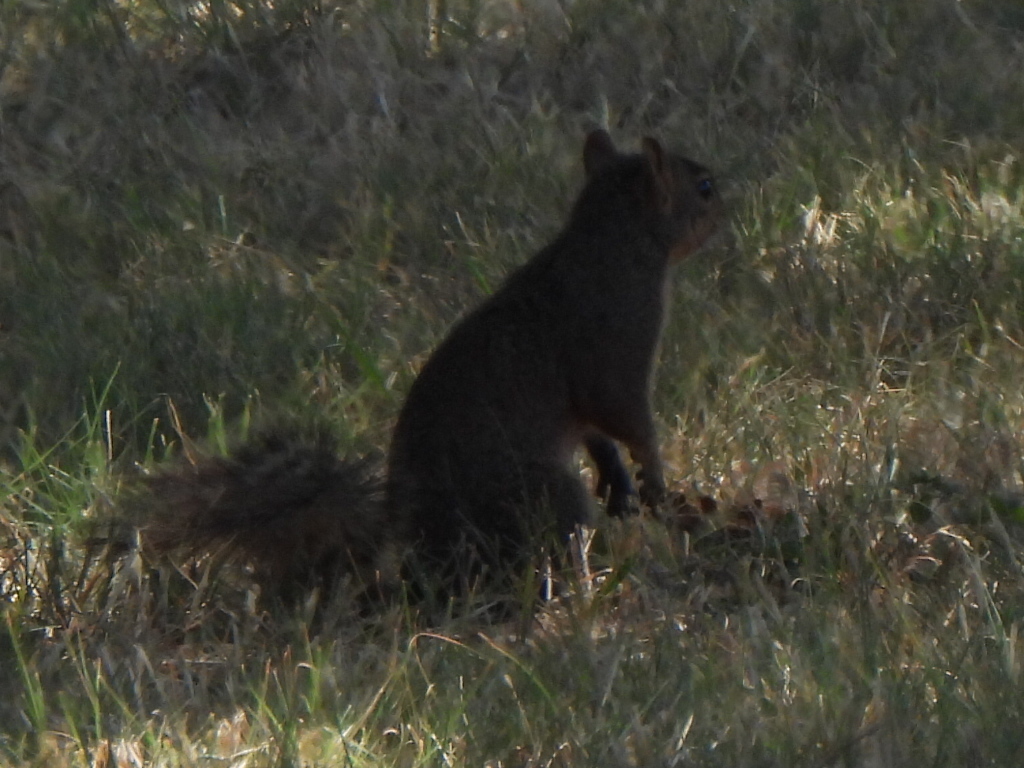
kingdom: Animalia
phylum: Chordata
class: Mammalia
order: Rodentia
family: Sciuridae
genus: Sciurus
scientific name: Sciurus niger
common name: Fox squirrel
